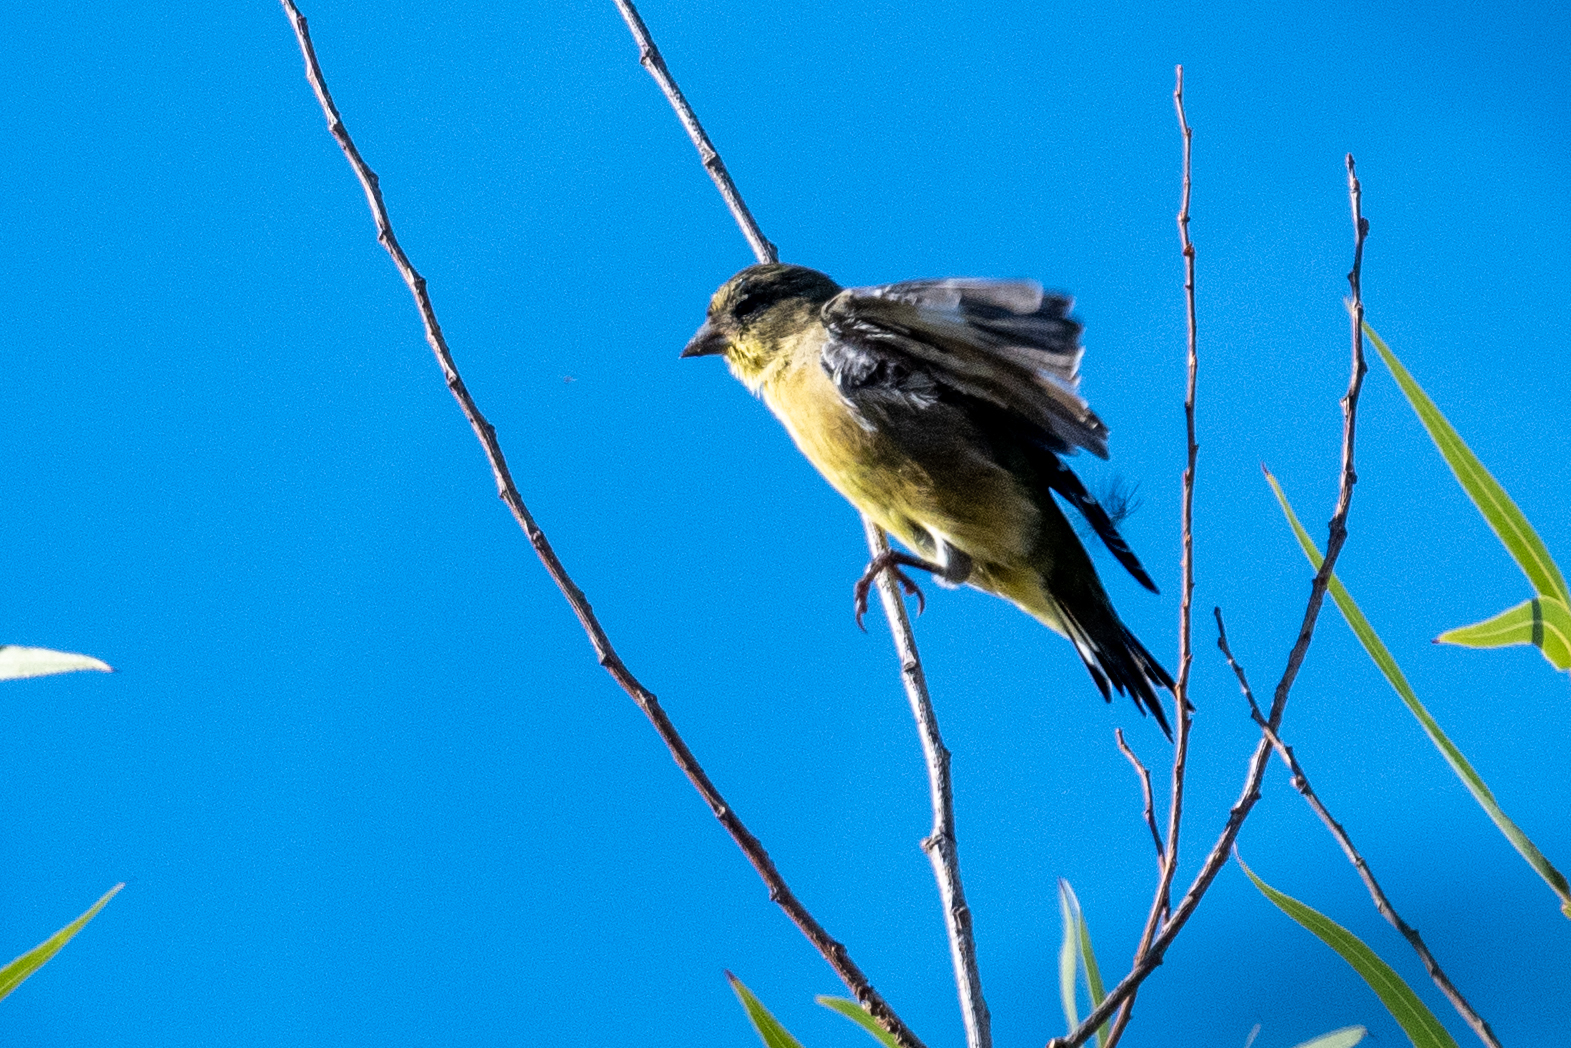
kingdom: Animalia
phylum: Chordata
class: Aves
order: Passeriformes
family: Fringillidae
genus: Spinus
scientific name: Spinus psaltria
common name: Lesser goldfinch
